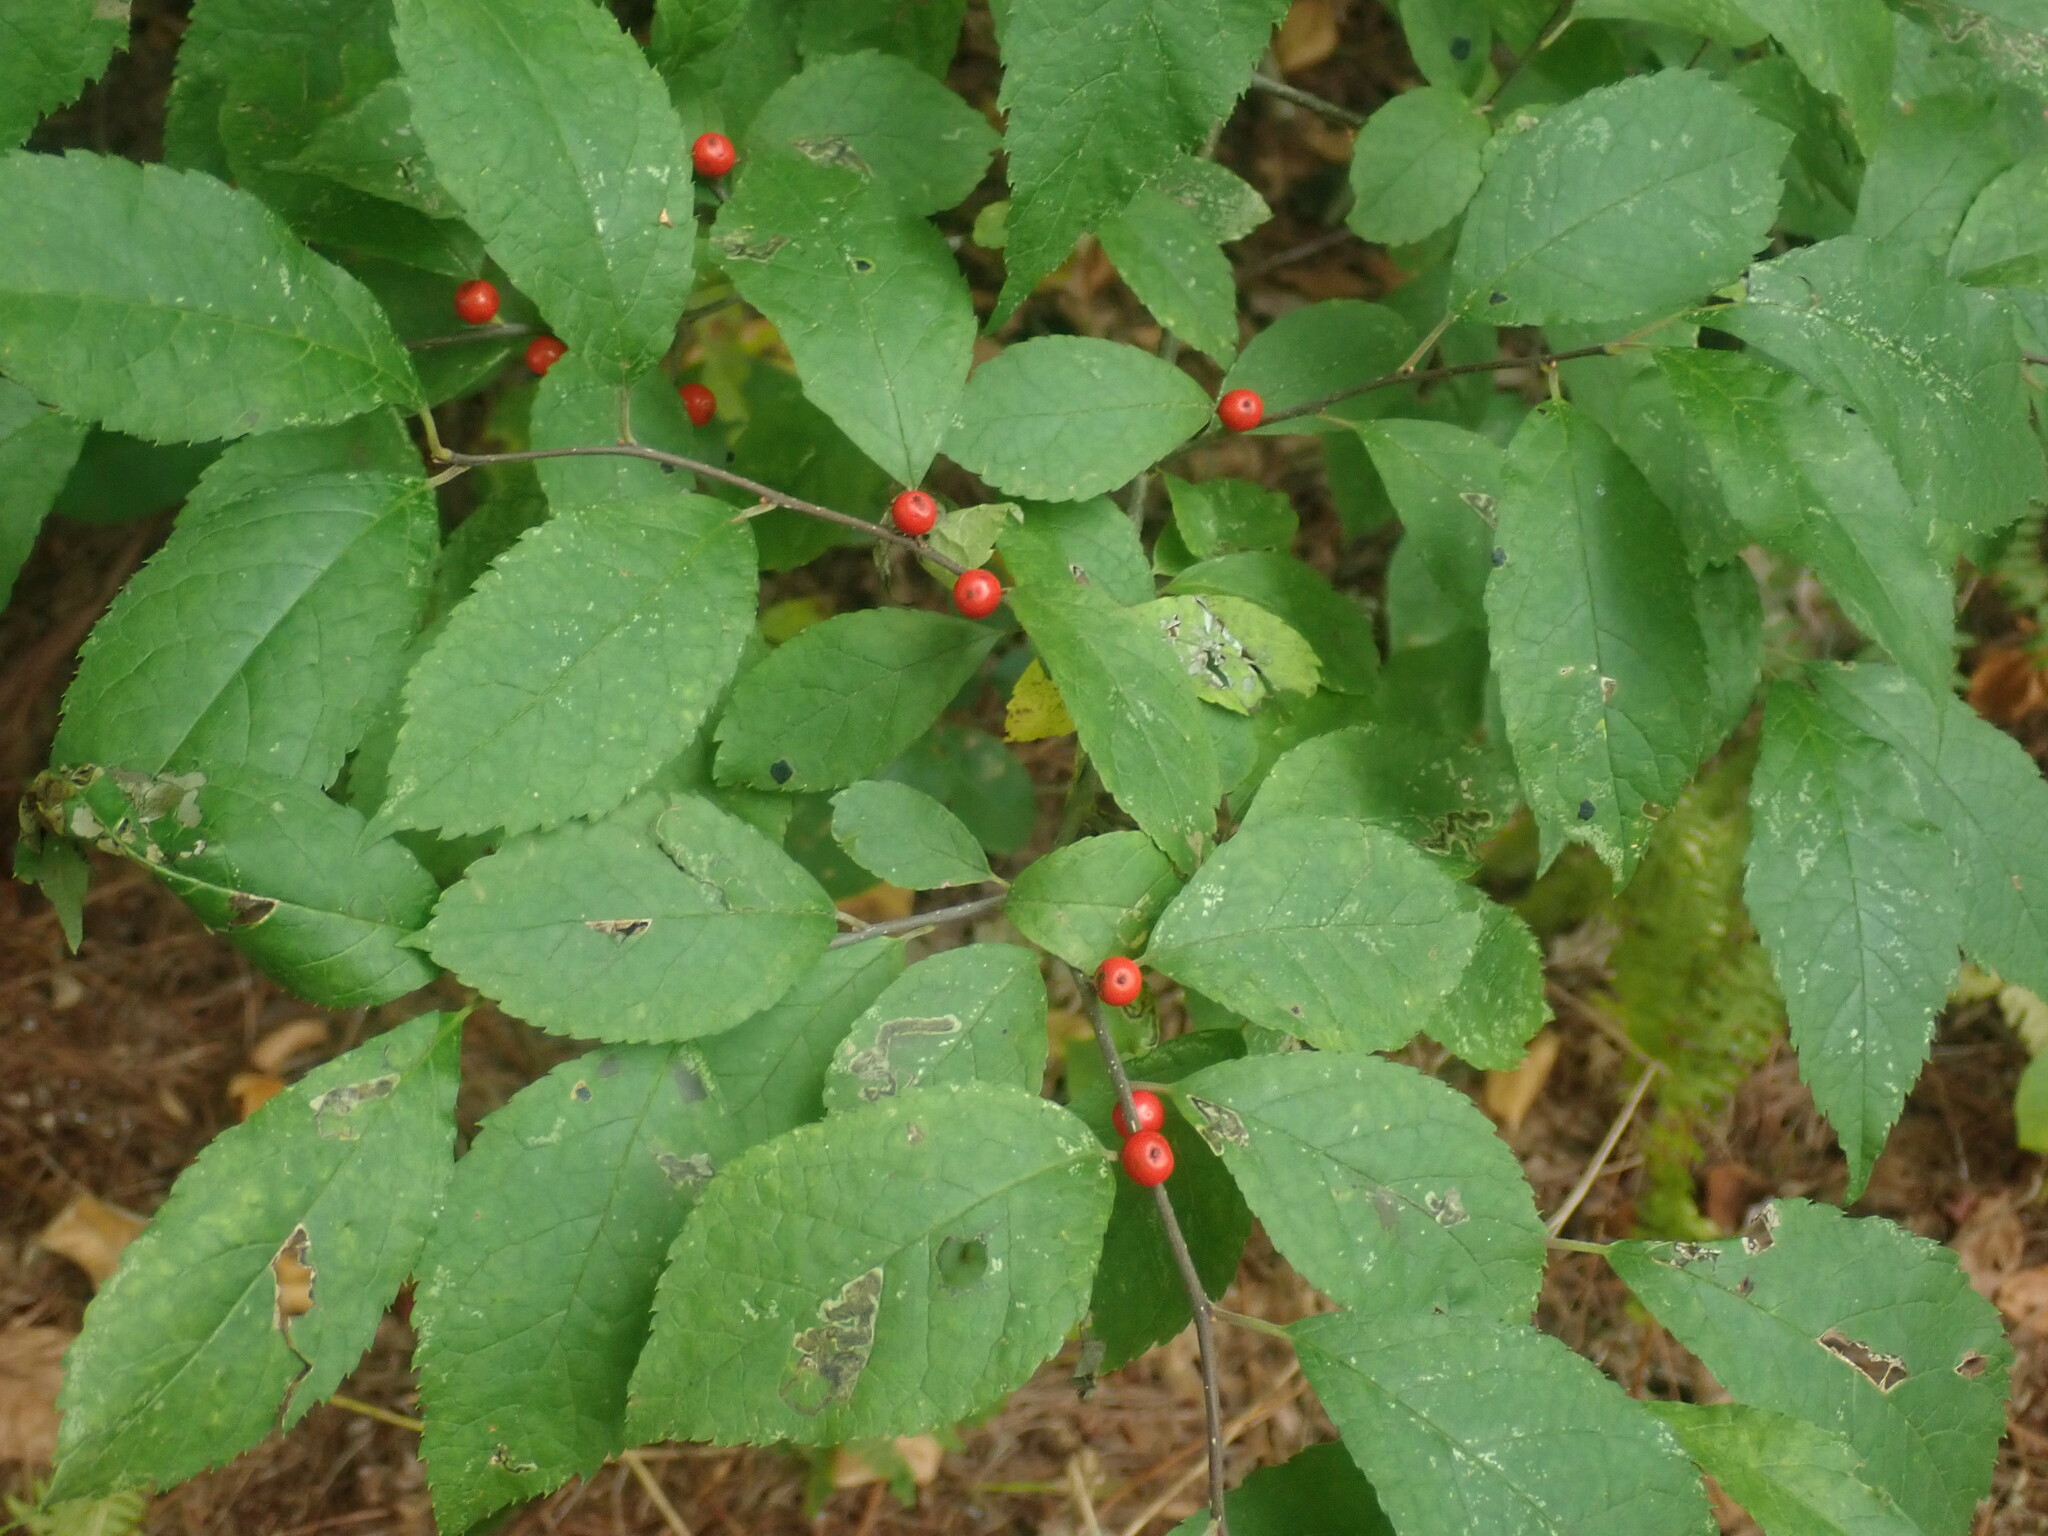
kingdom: Plantae
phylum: Tracheophyta
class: Magnoliopsida
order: Aquifoliales
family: Aquifoliaceae
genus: Ilex
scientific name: Ilex verticillata
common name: Virginia winterberry
